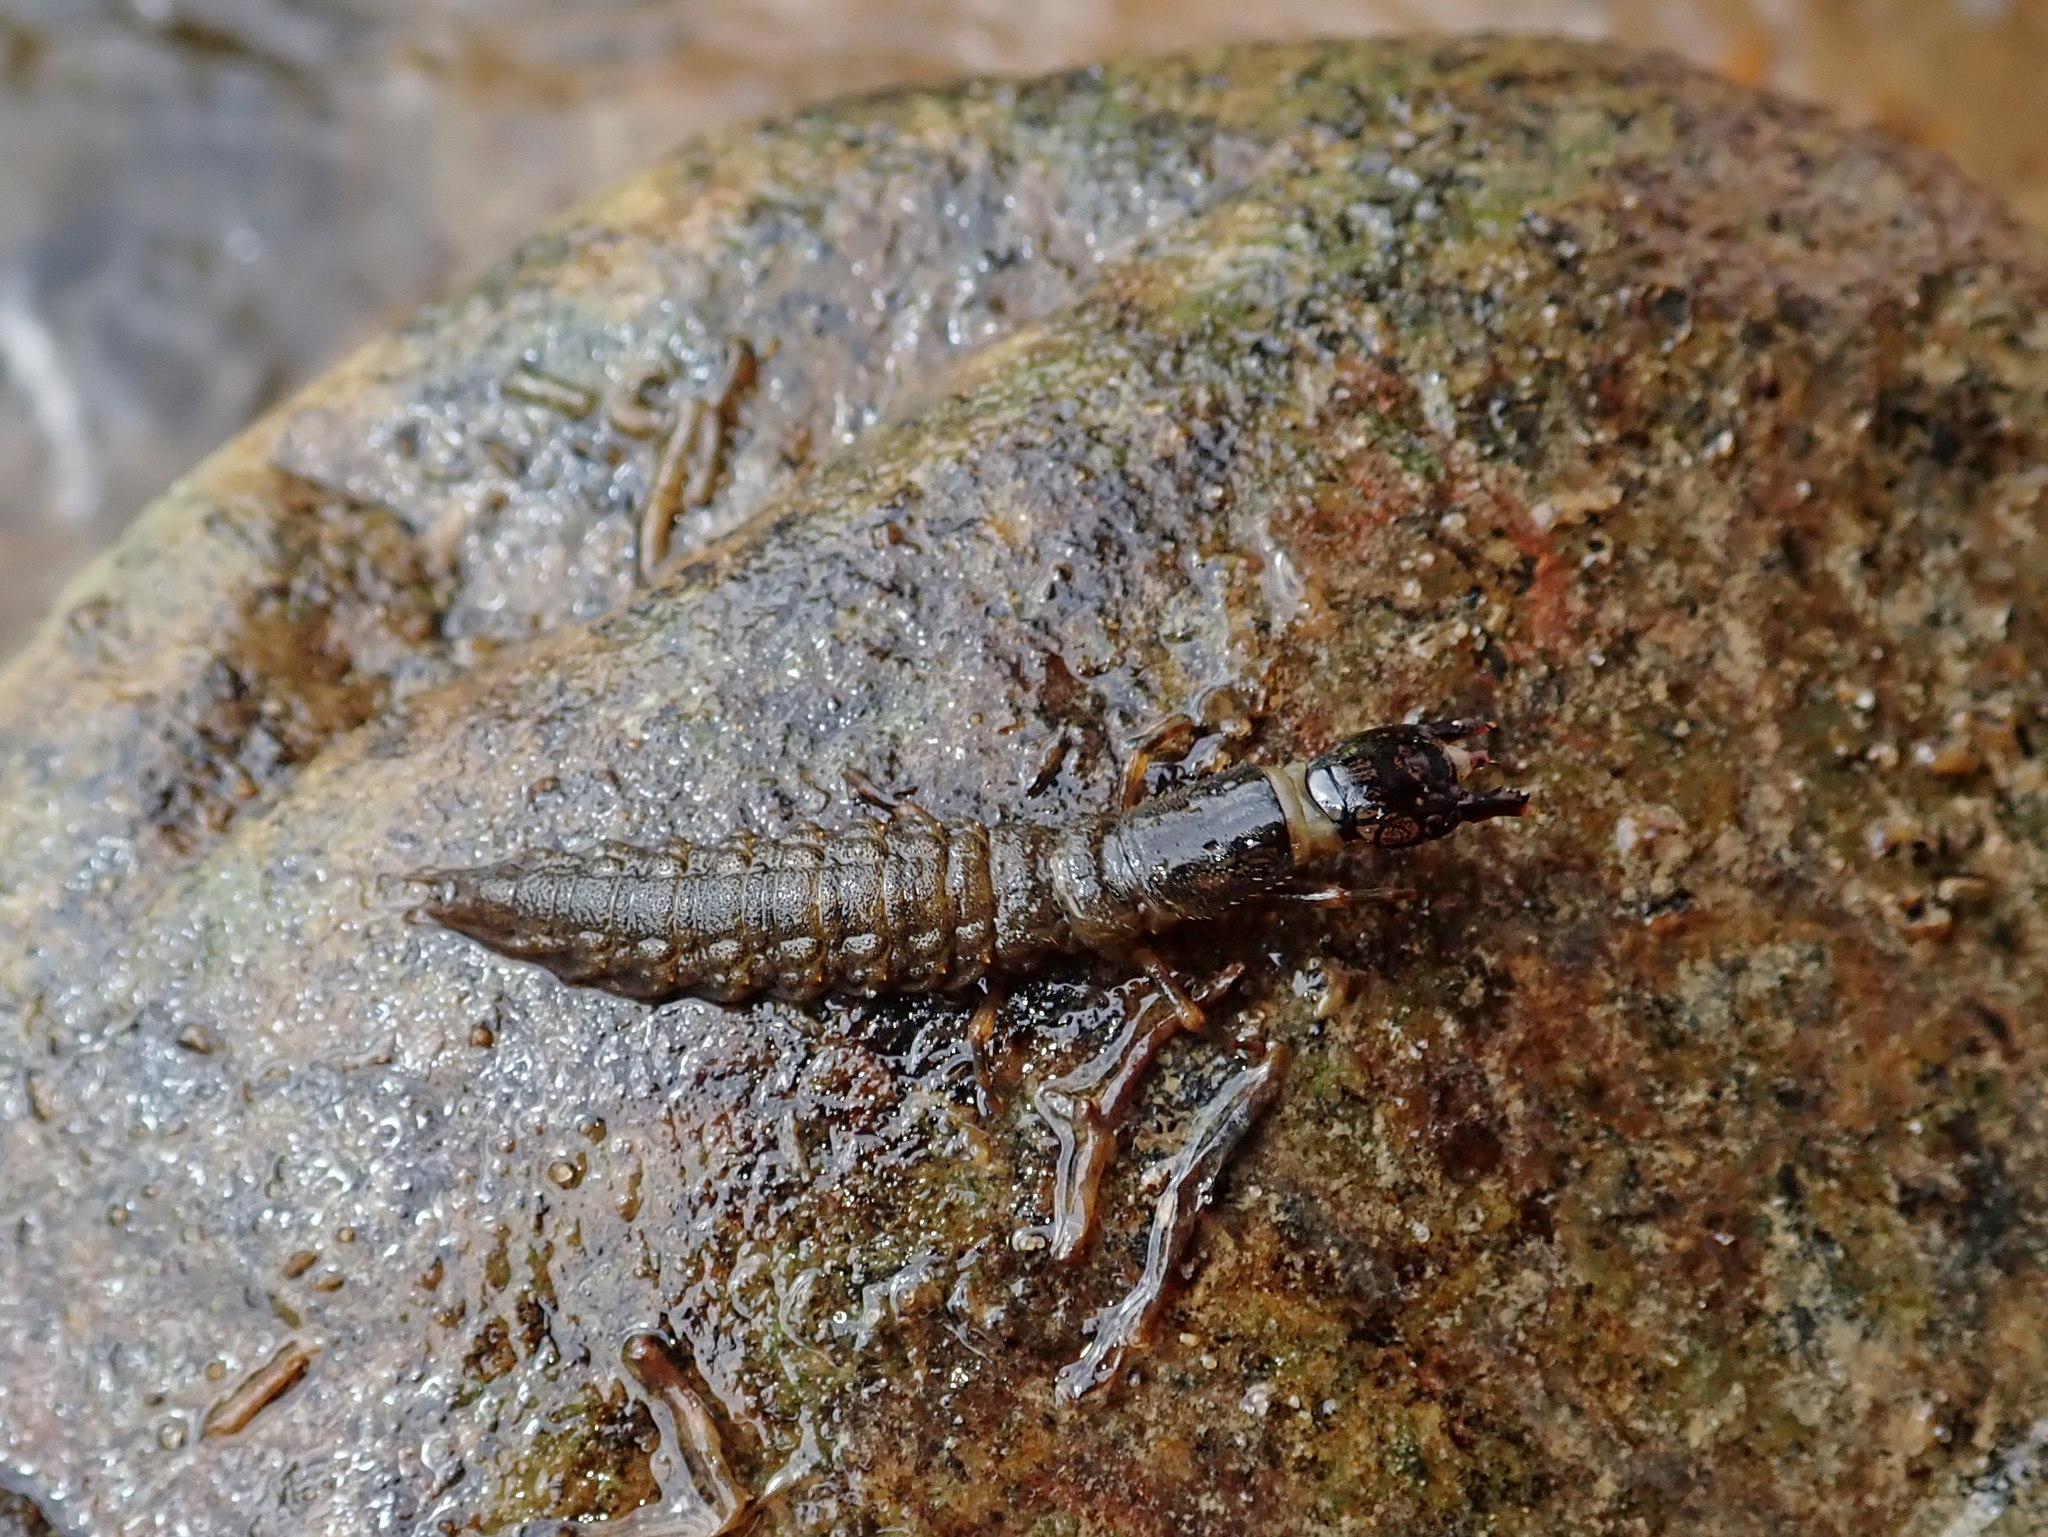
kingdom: Animalia
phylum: Arthropoda
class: Insecta
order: Megaloptera
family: Corydalidae
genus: Corydalus
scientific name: Corydalus cornutus
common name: Dobsonfly
